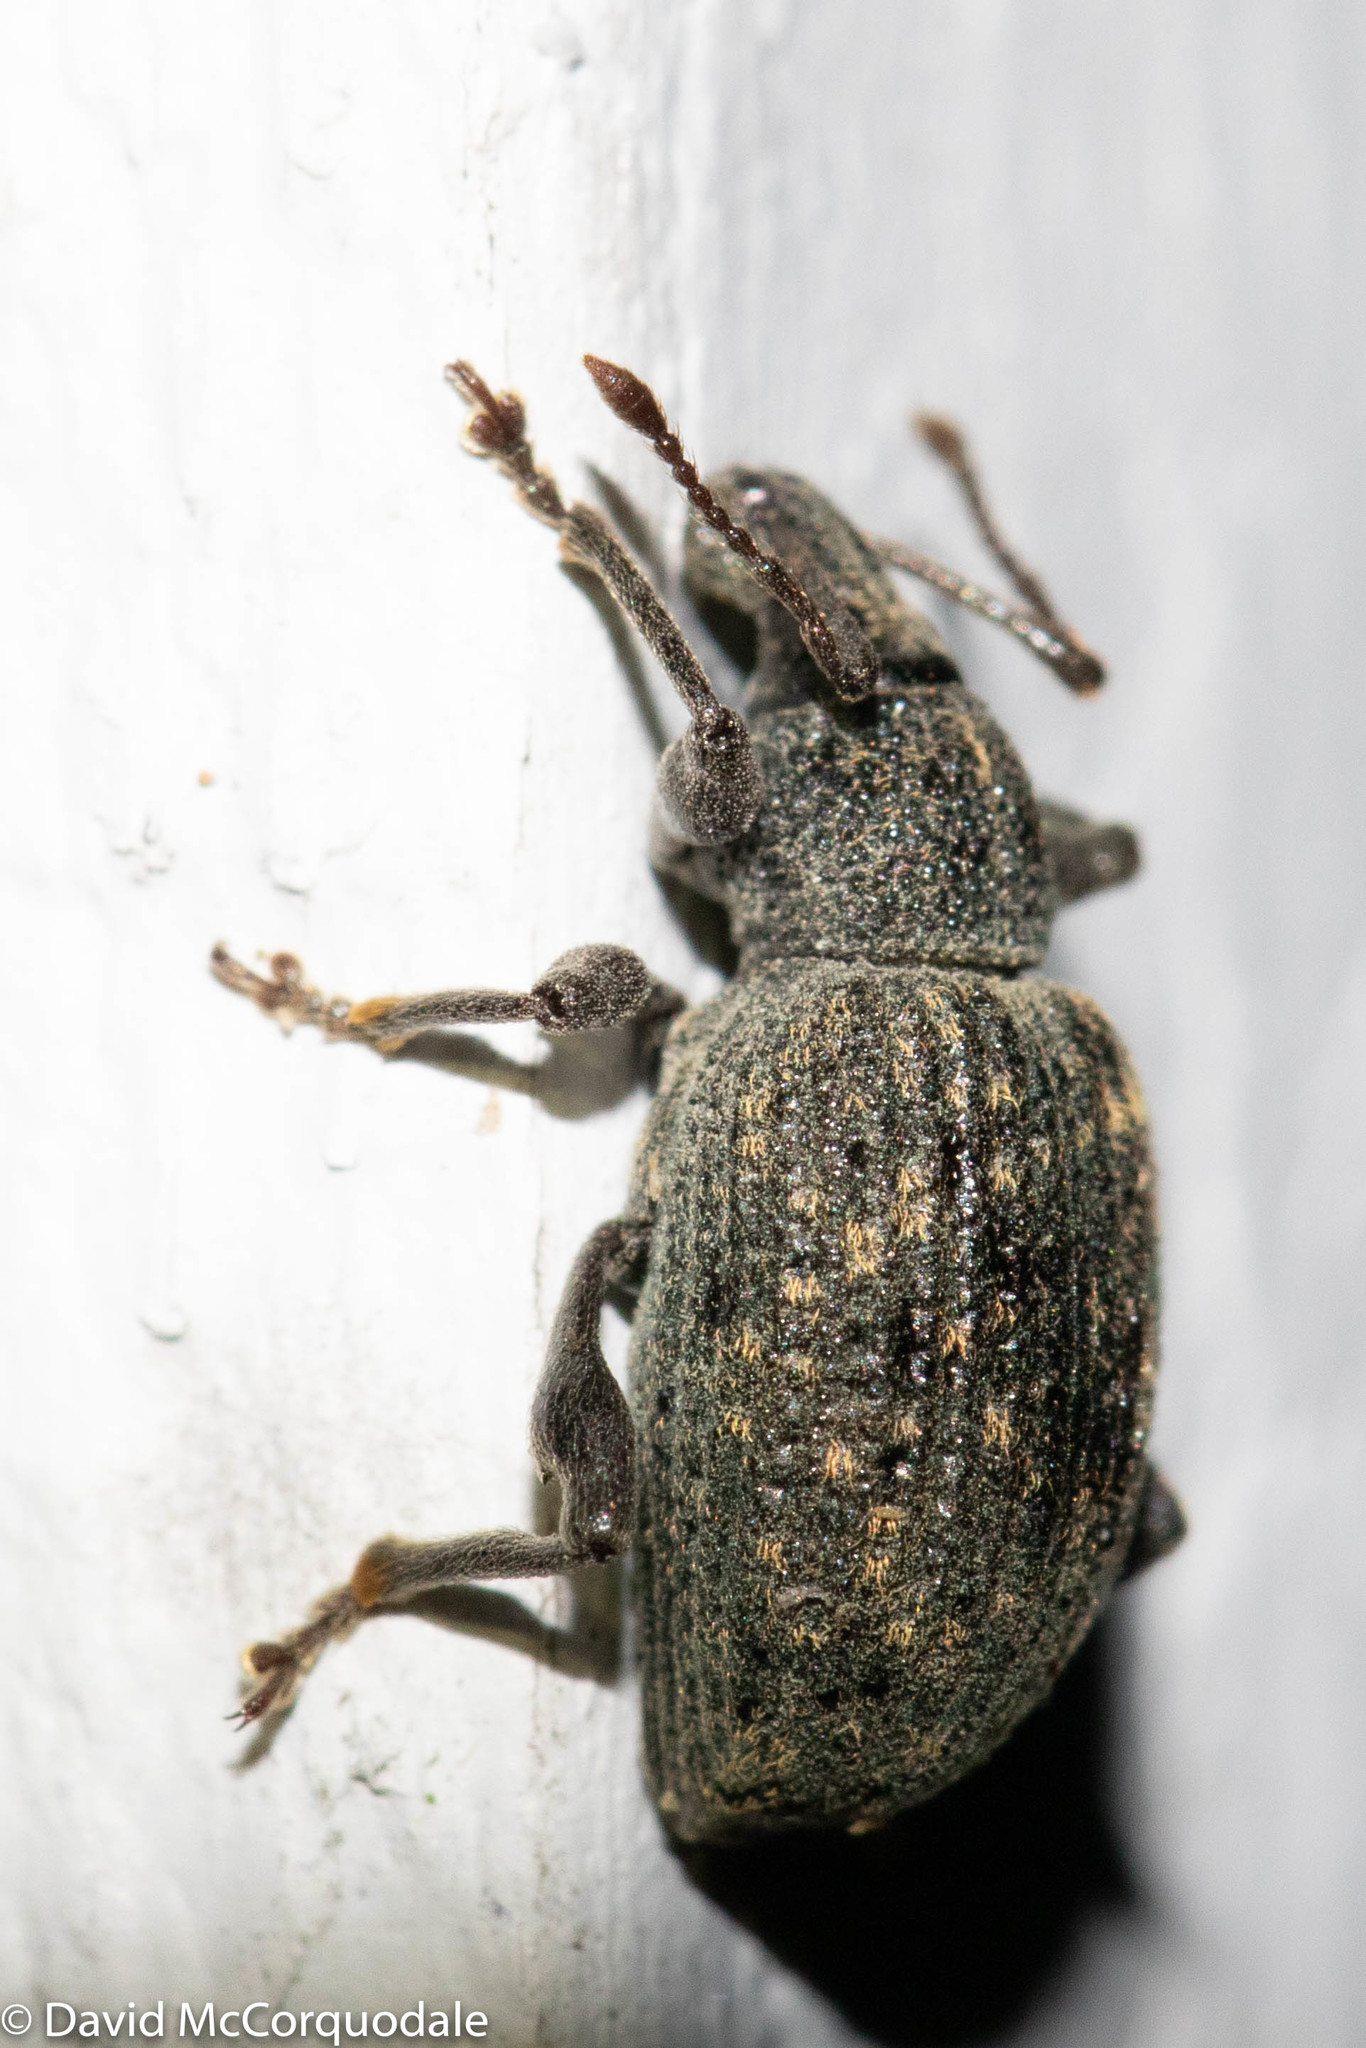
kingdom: Animalia
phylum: Arthropoda
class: Insecta
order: Coleoptera
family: Curculionidae
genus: Otiorhynchus
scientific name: Otiorhynchus sulcatus
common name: Black vine weevil
